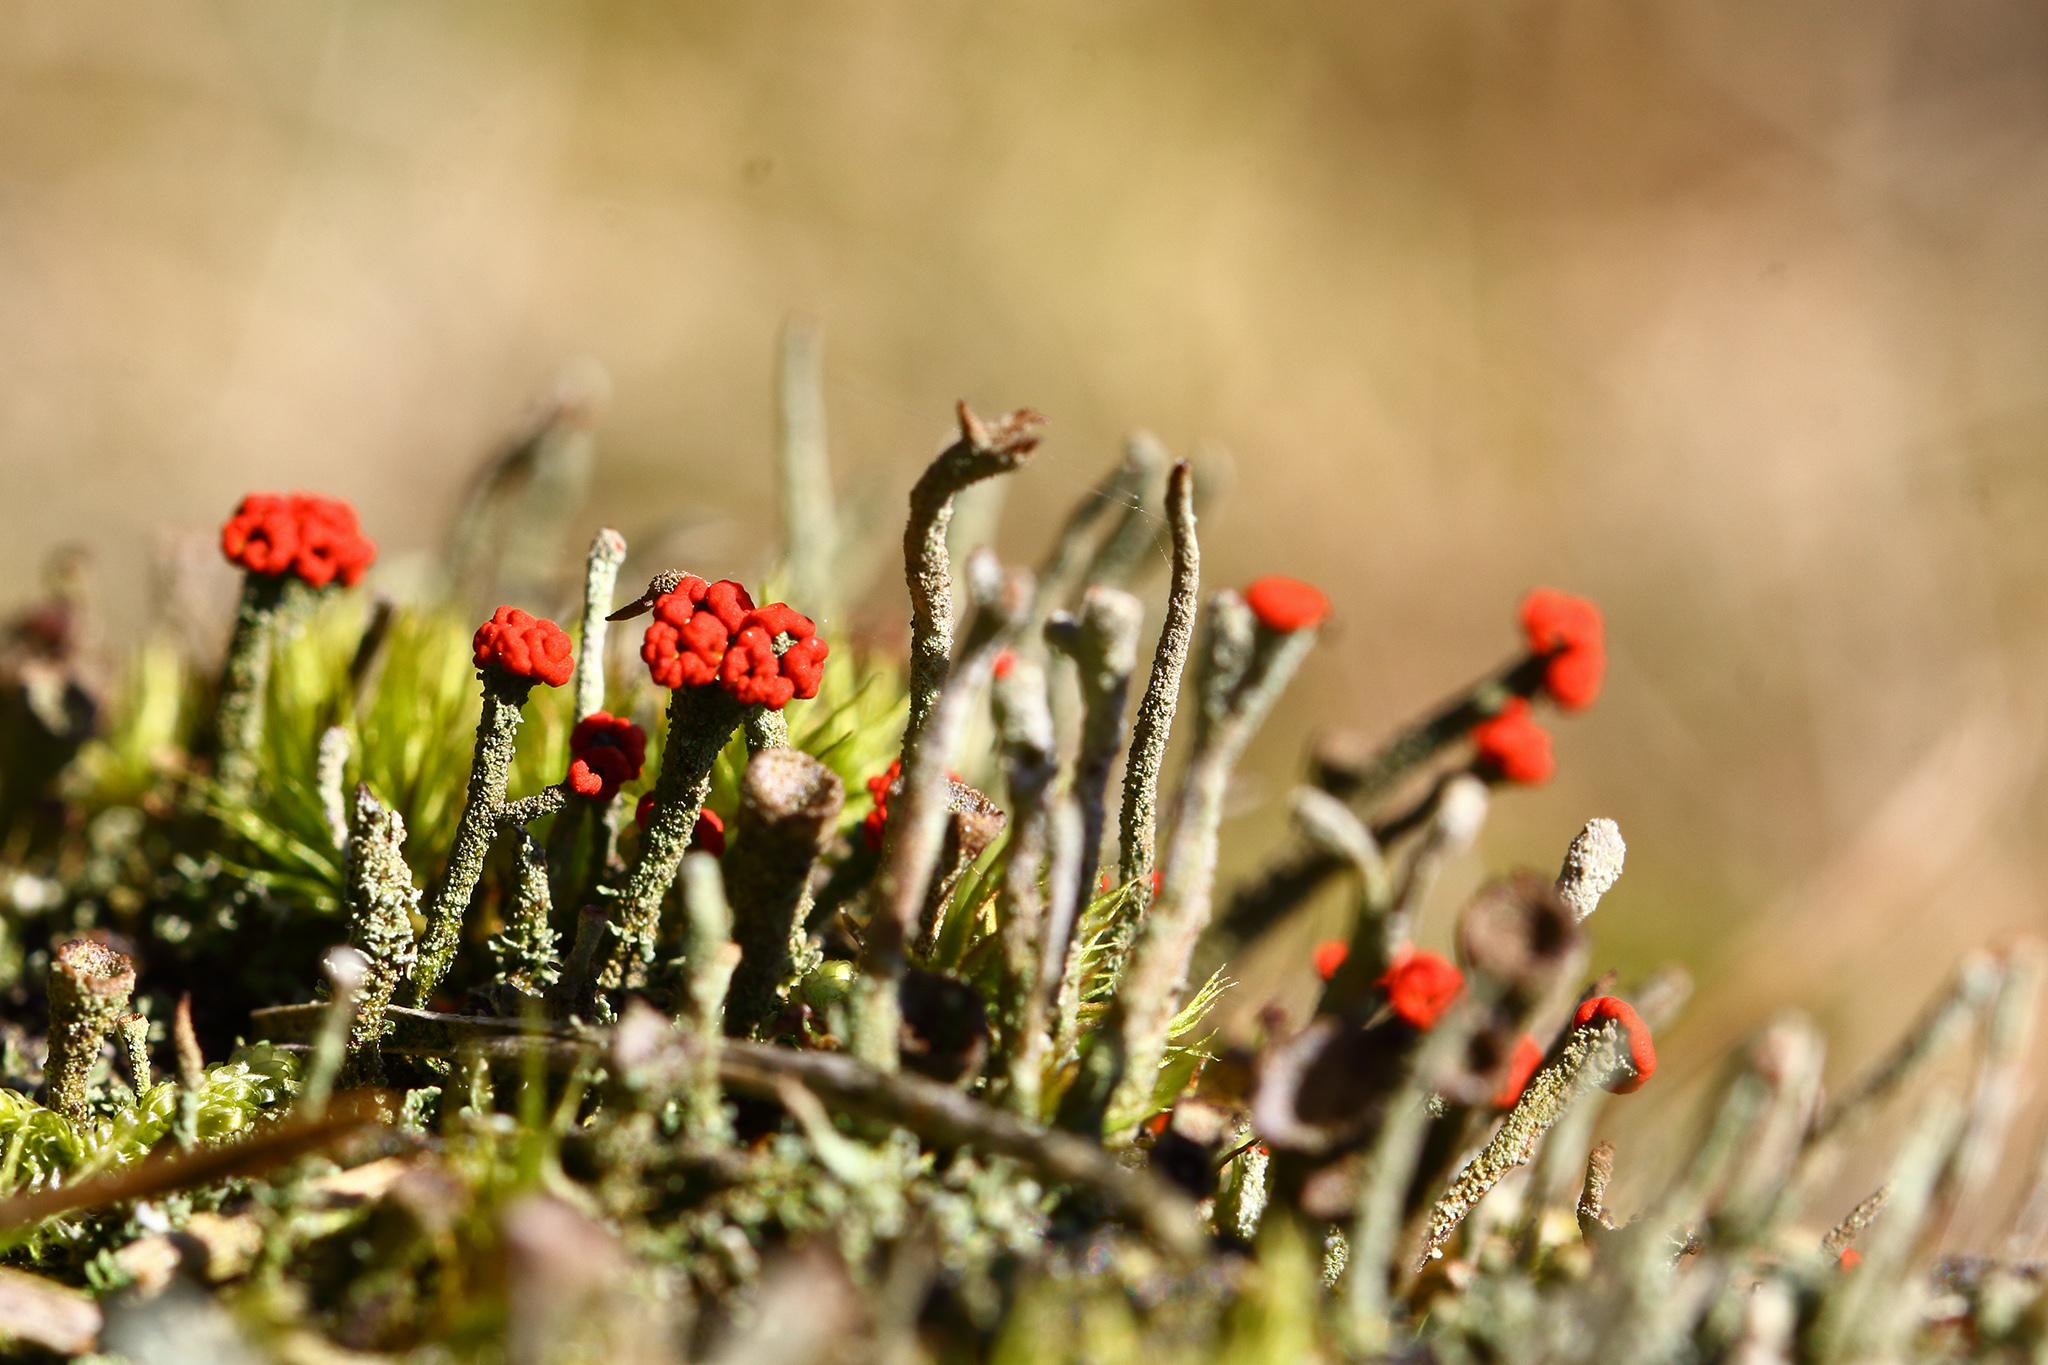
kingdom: Fungi
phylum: Ascomycota
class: Lecanoromycetes
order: Lecanorales
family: Cladoniaceae
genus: Cladonia
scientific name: Cladonia floerkeana
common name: Gritty british soldiers lichen
